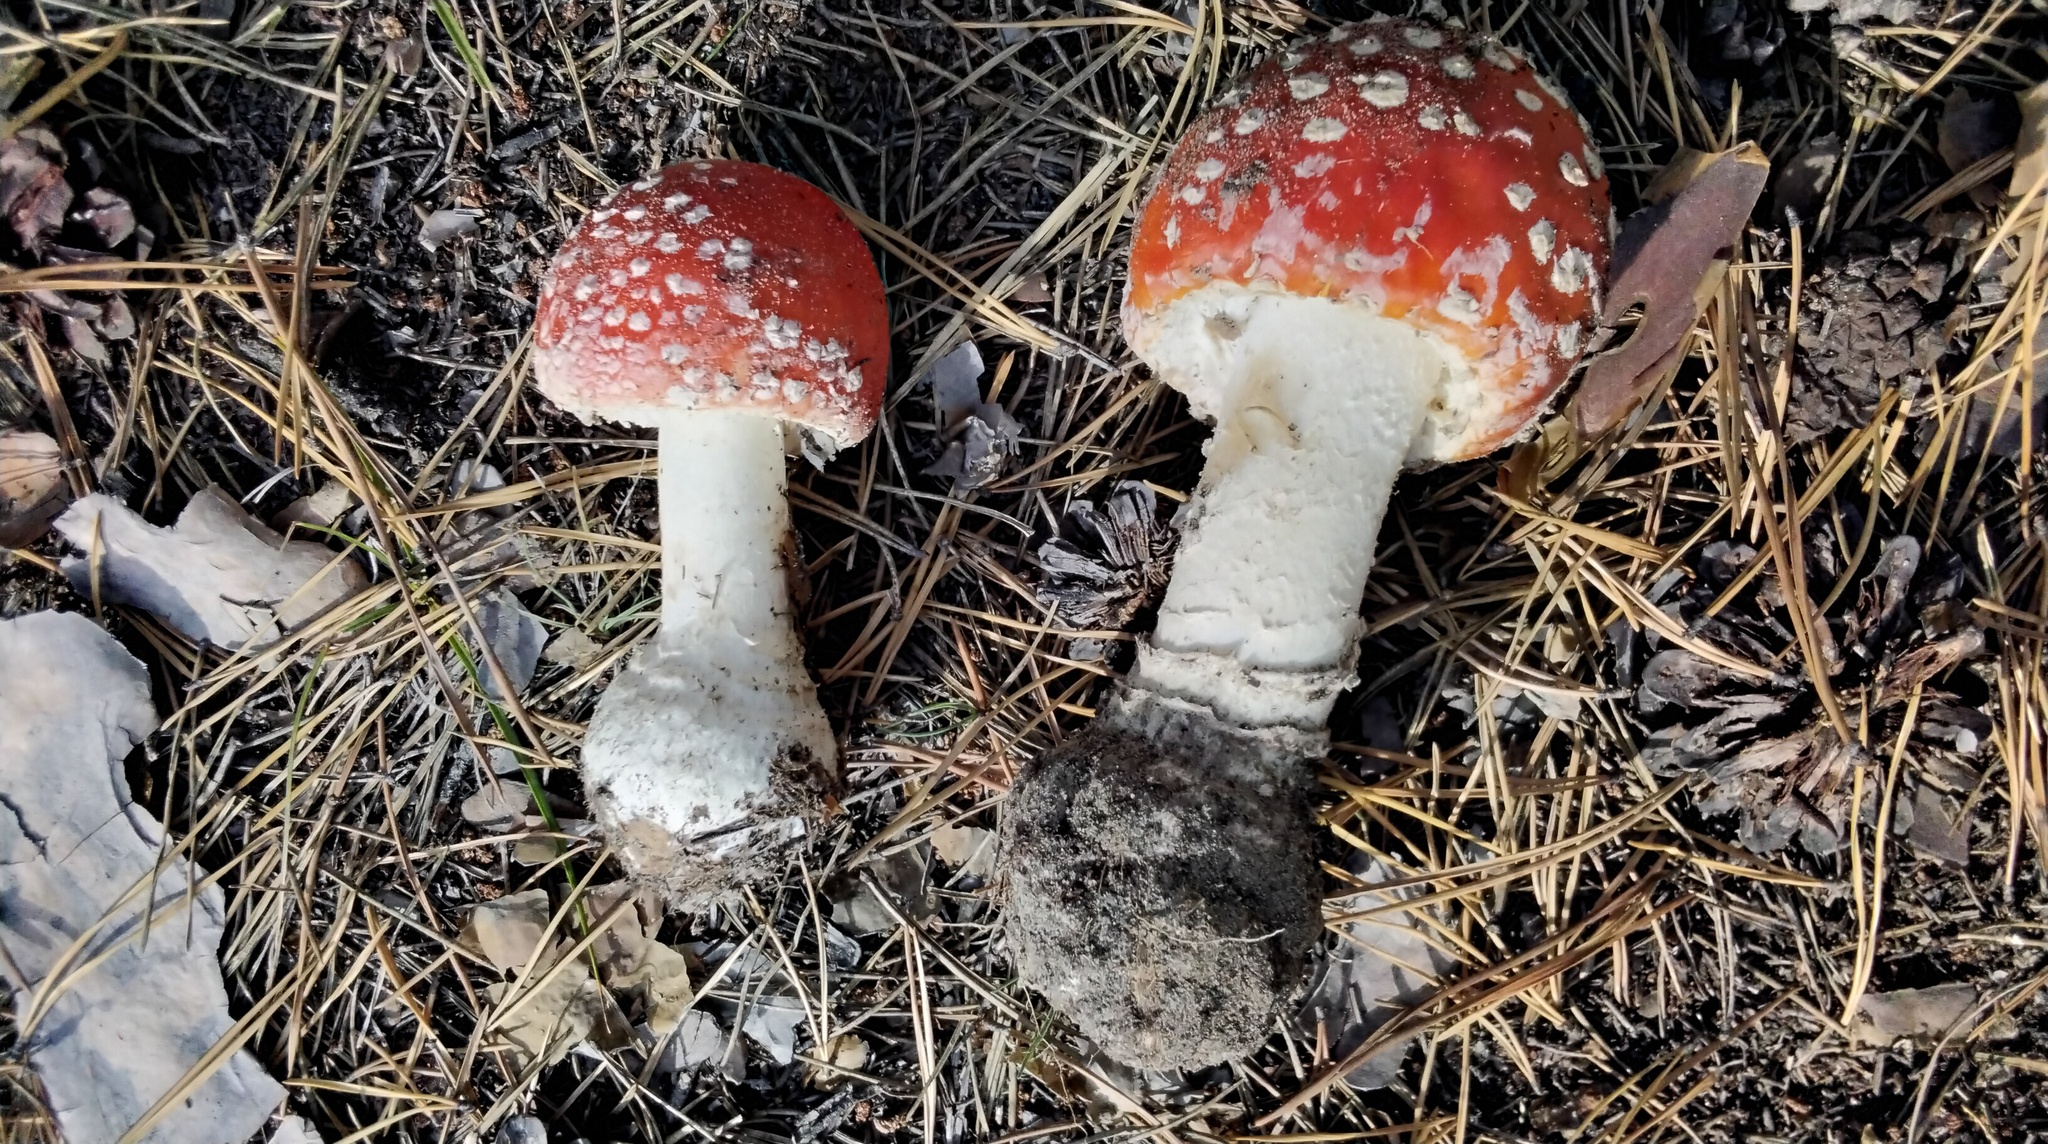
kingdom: Fungi
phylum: Basidiomycota
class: Agaricomycetes
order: Agaricales
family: Amanitaceae
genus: Amanita
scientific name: Amanita muscaria
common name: Fly agaric
